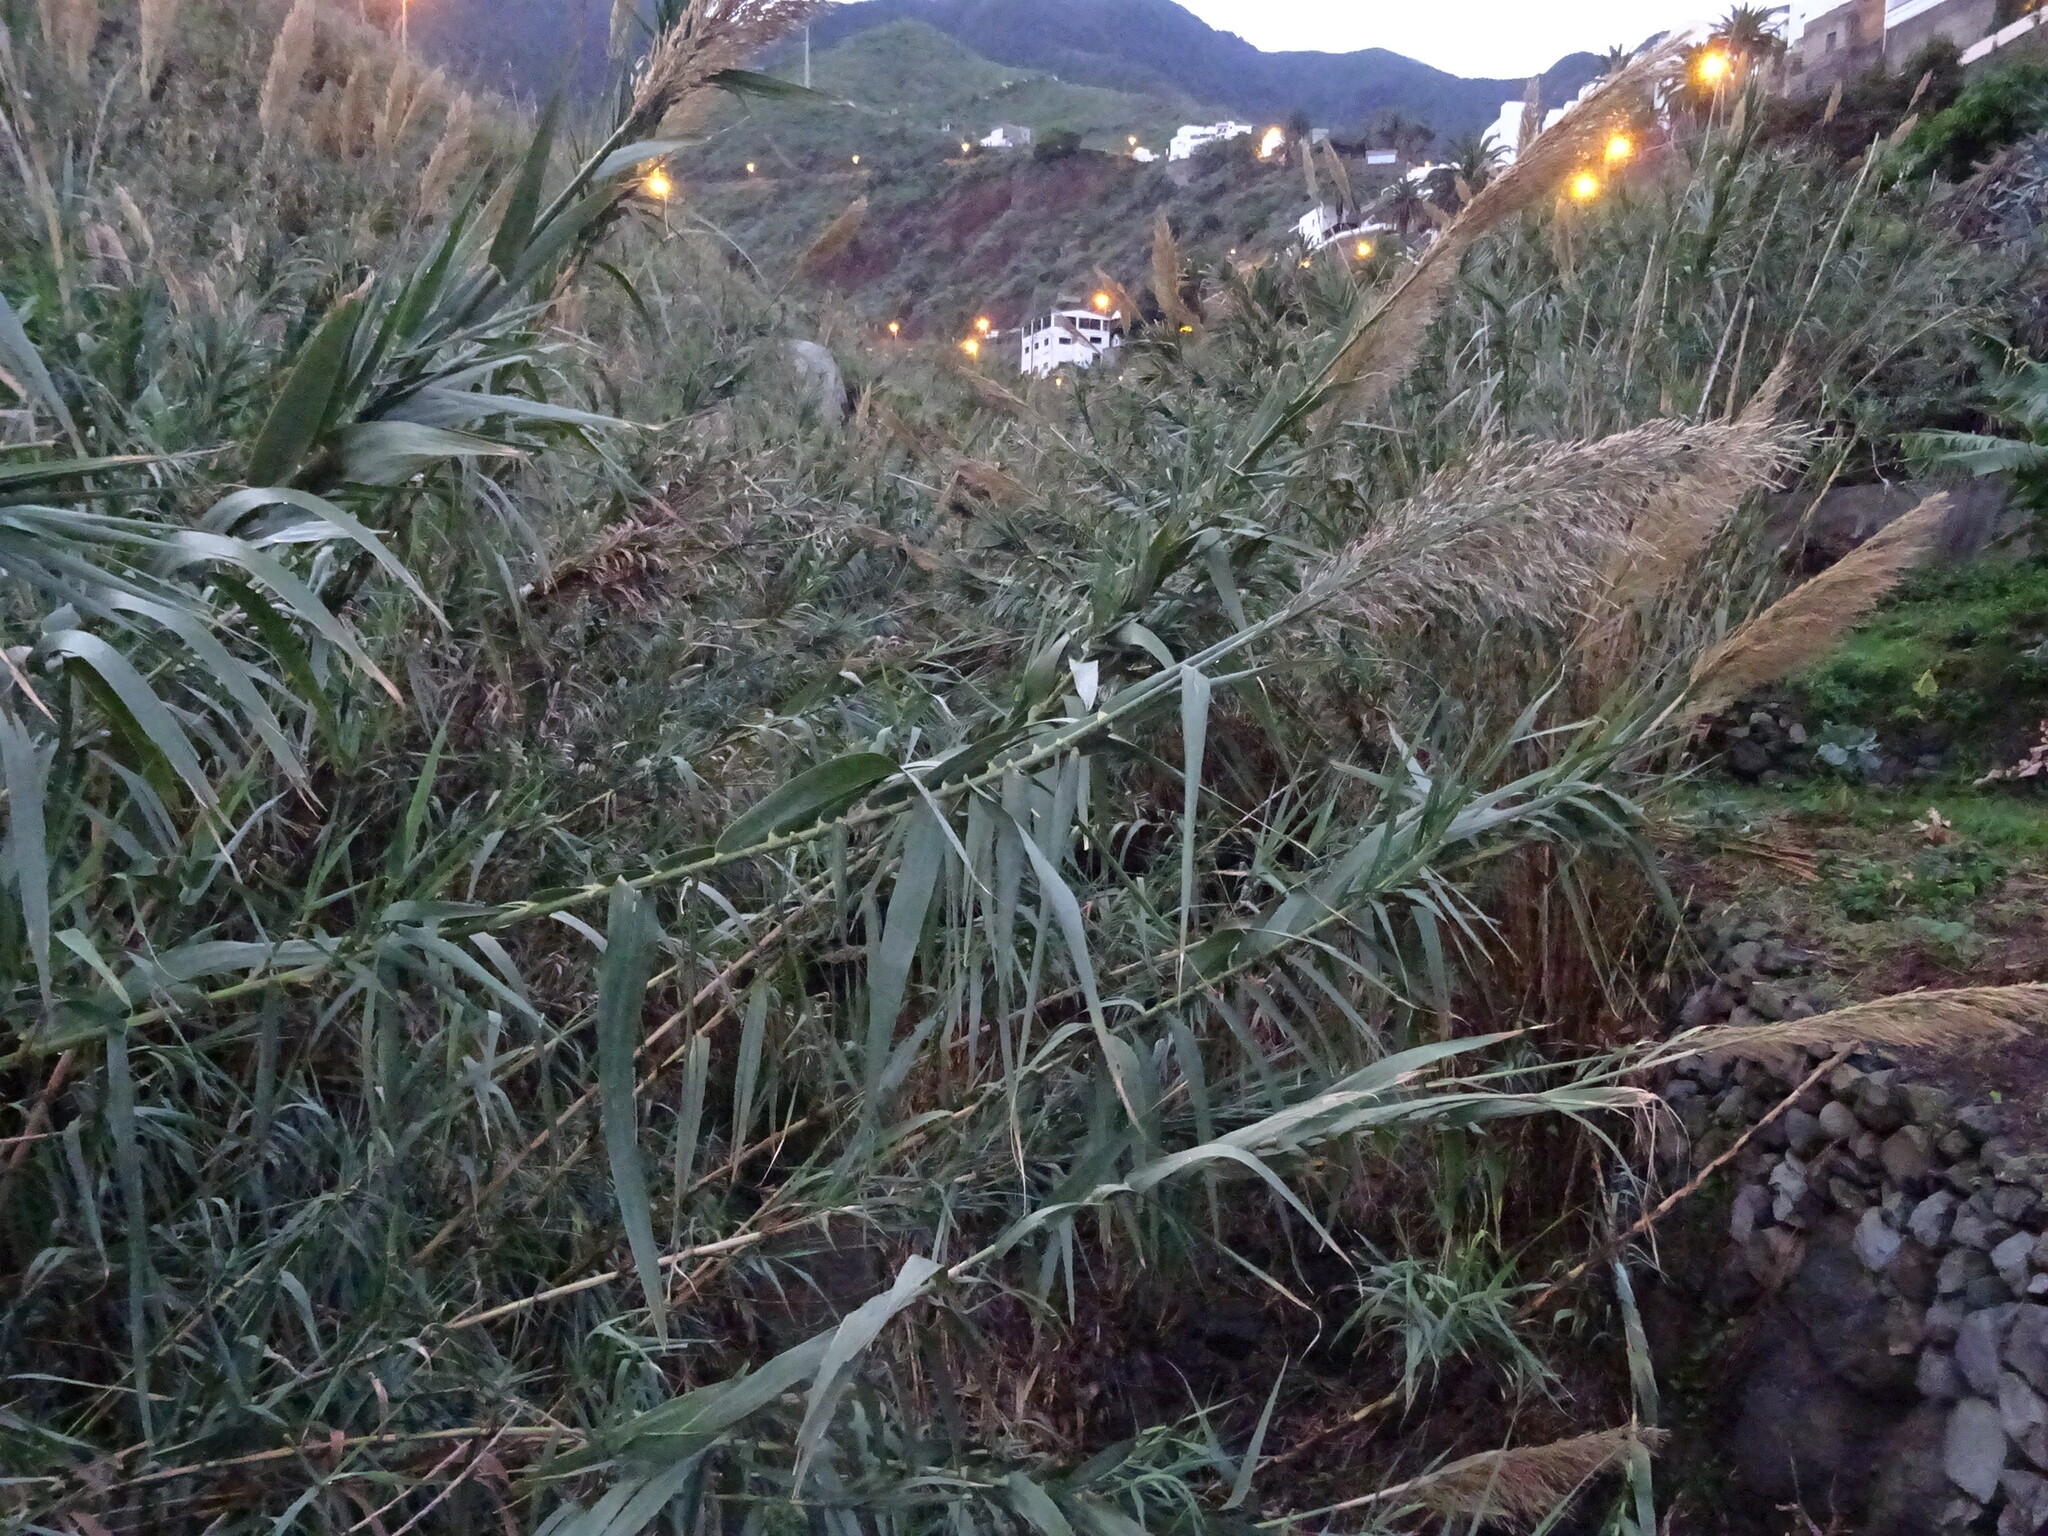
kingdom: Plantae
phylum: Tracheophyta
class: Liliopsida
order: Poales
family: Poaceae
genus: Arundo
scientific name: Arundo donax
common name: Giant reed
